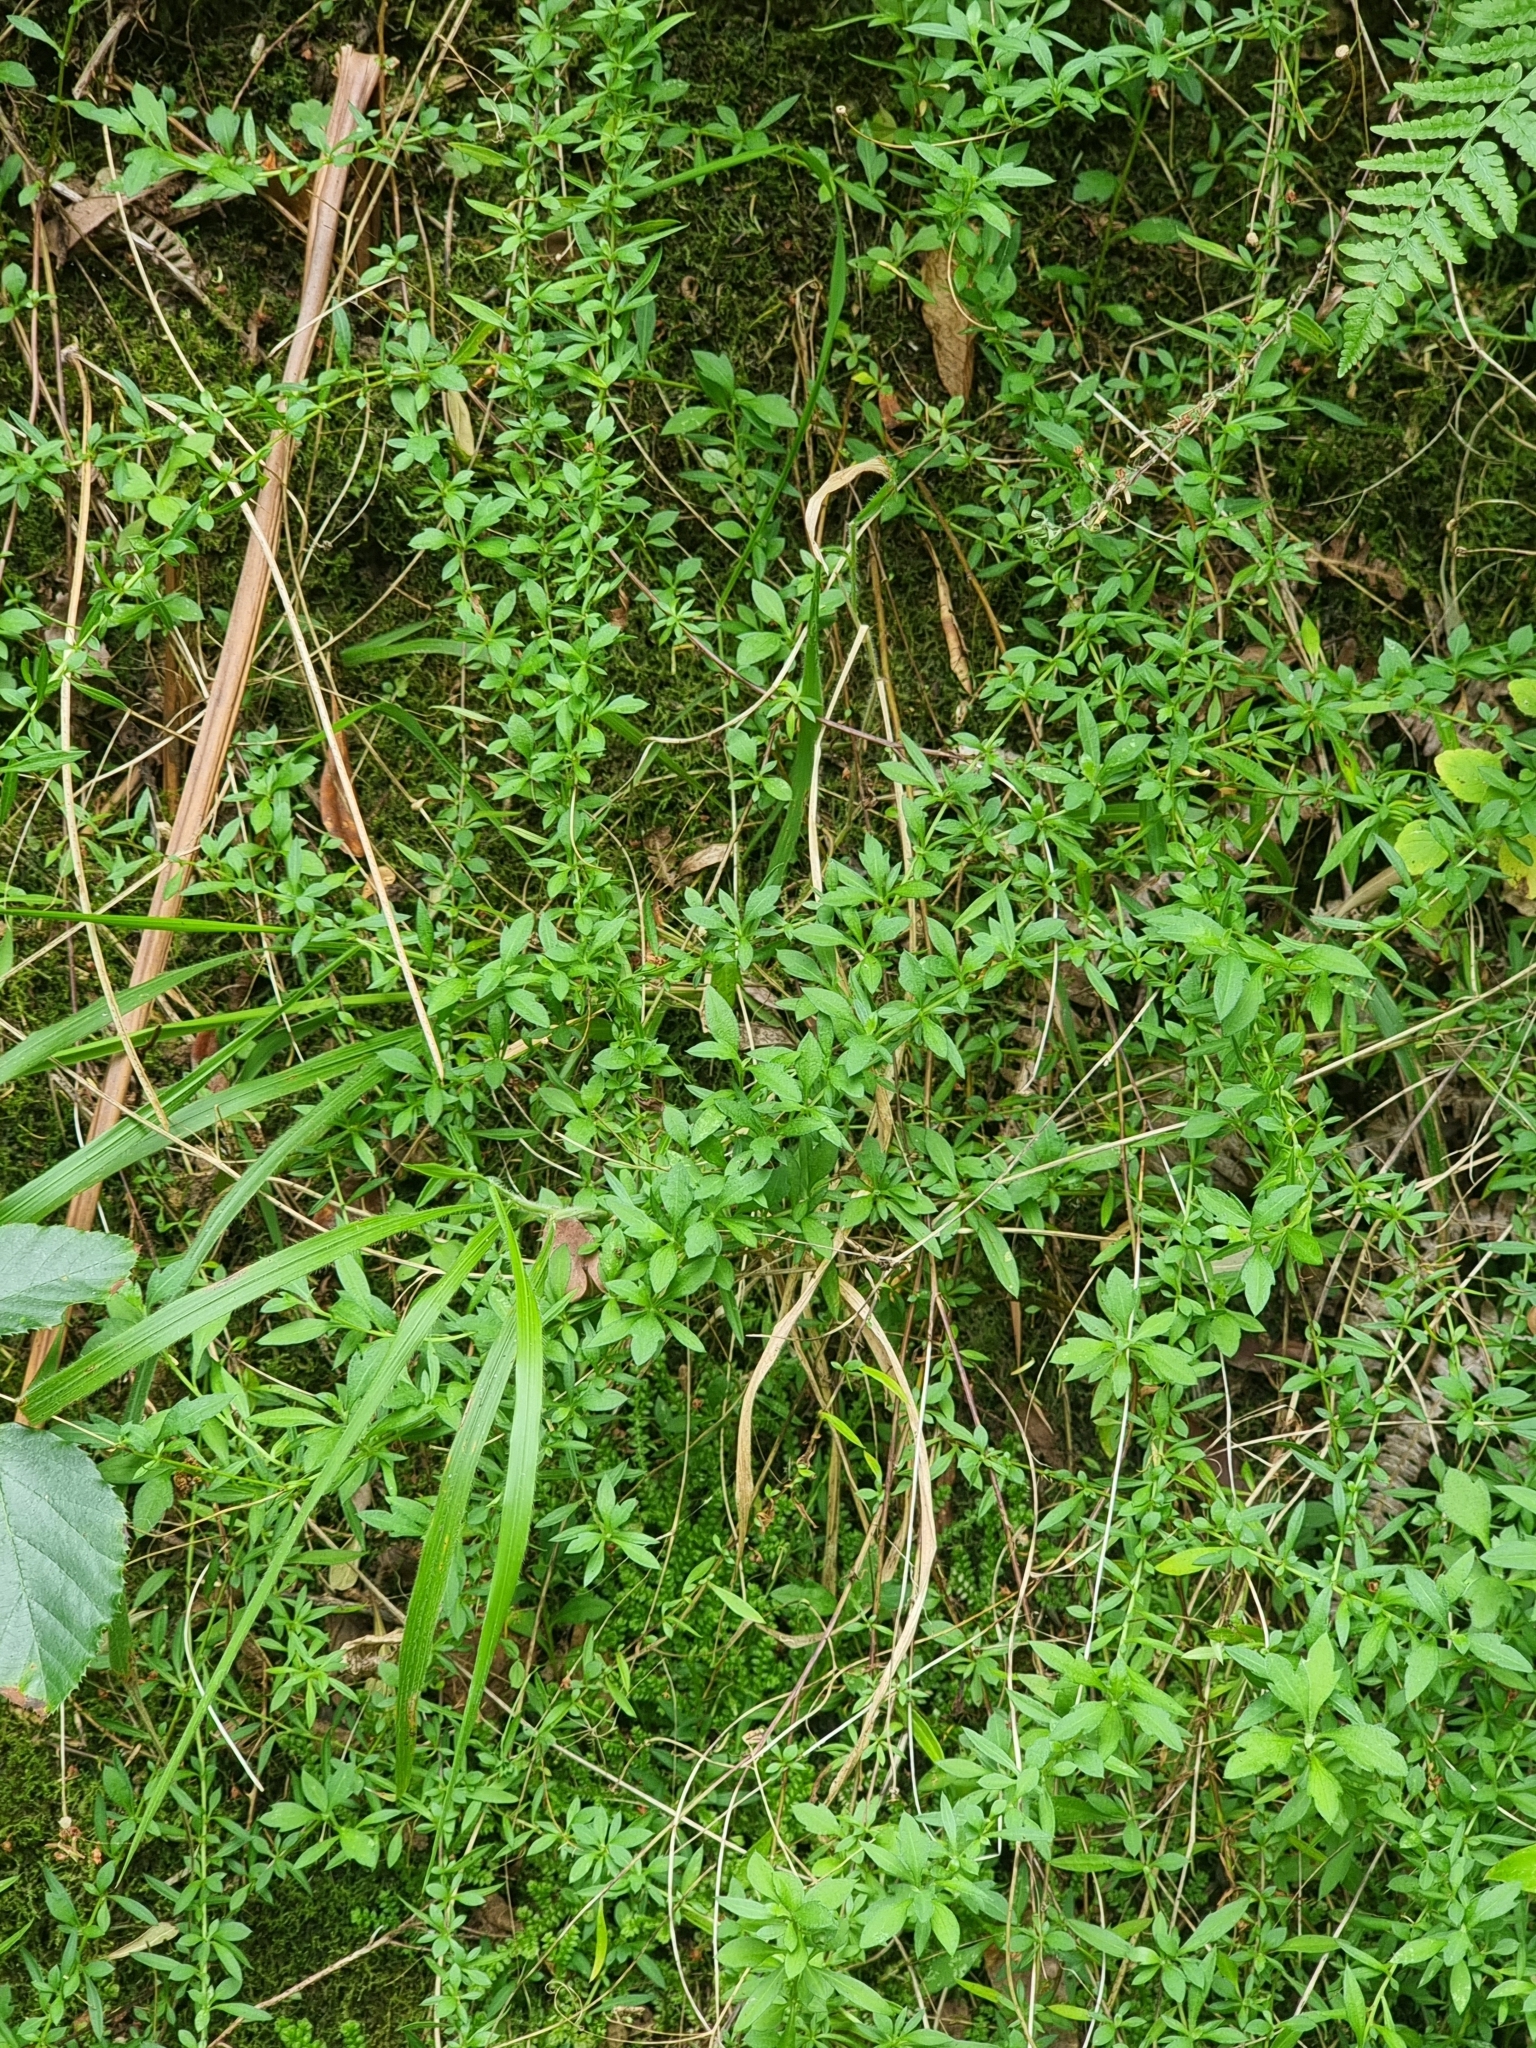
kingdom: Plantae
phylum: Tracheophyta
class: Magnoliopsida
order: Asterales
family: Asteraceae
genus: Erigeron
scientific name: Erigeron karvinskianus
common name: Mexican fleabane
